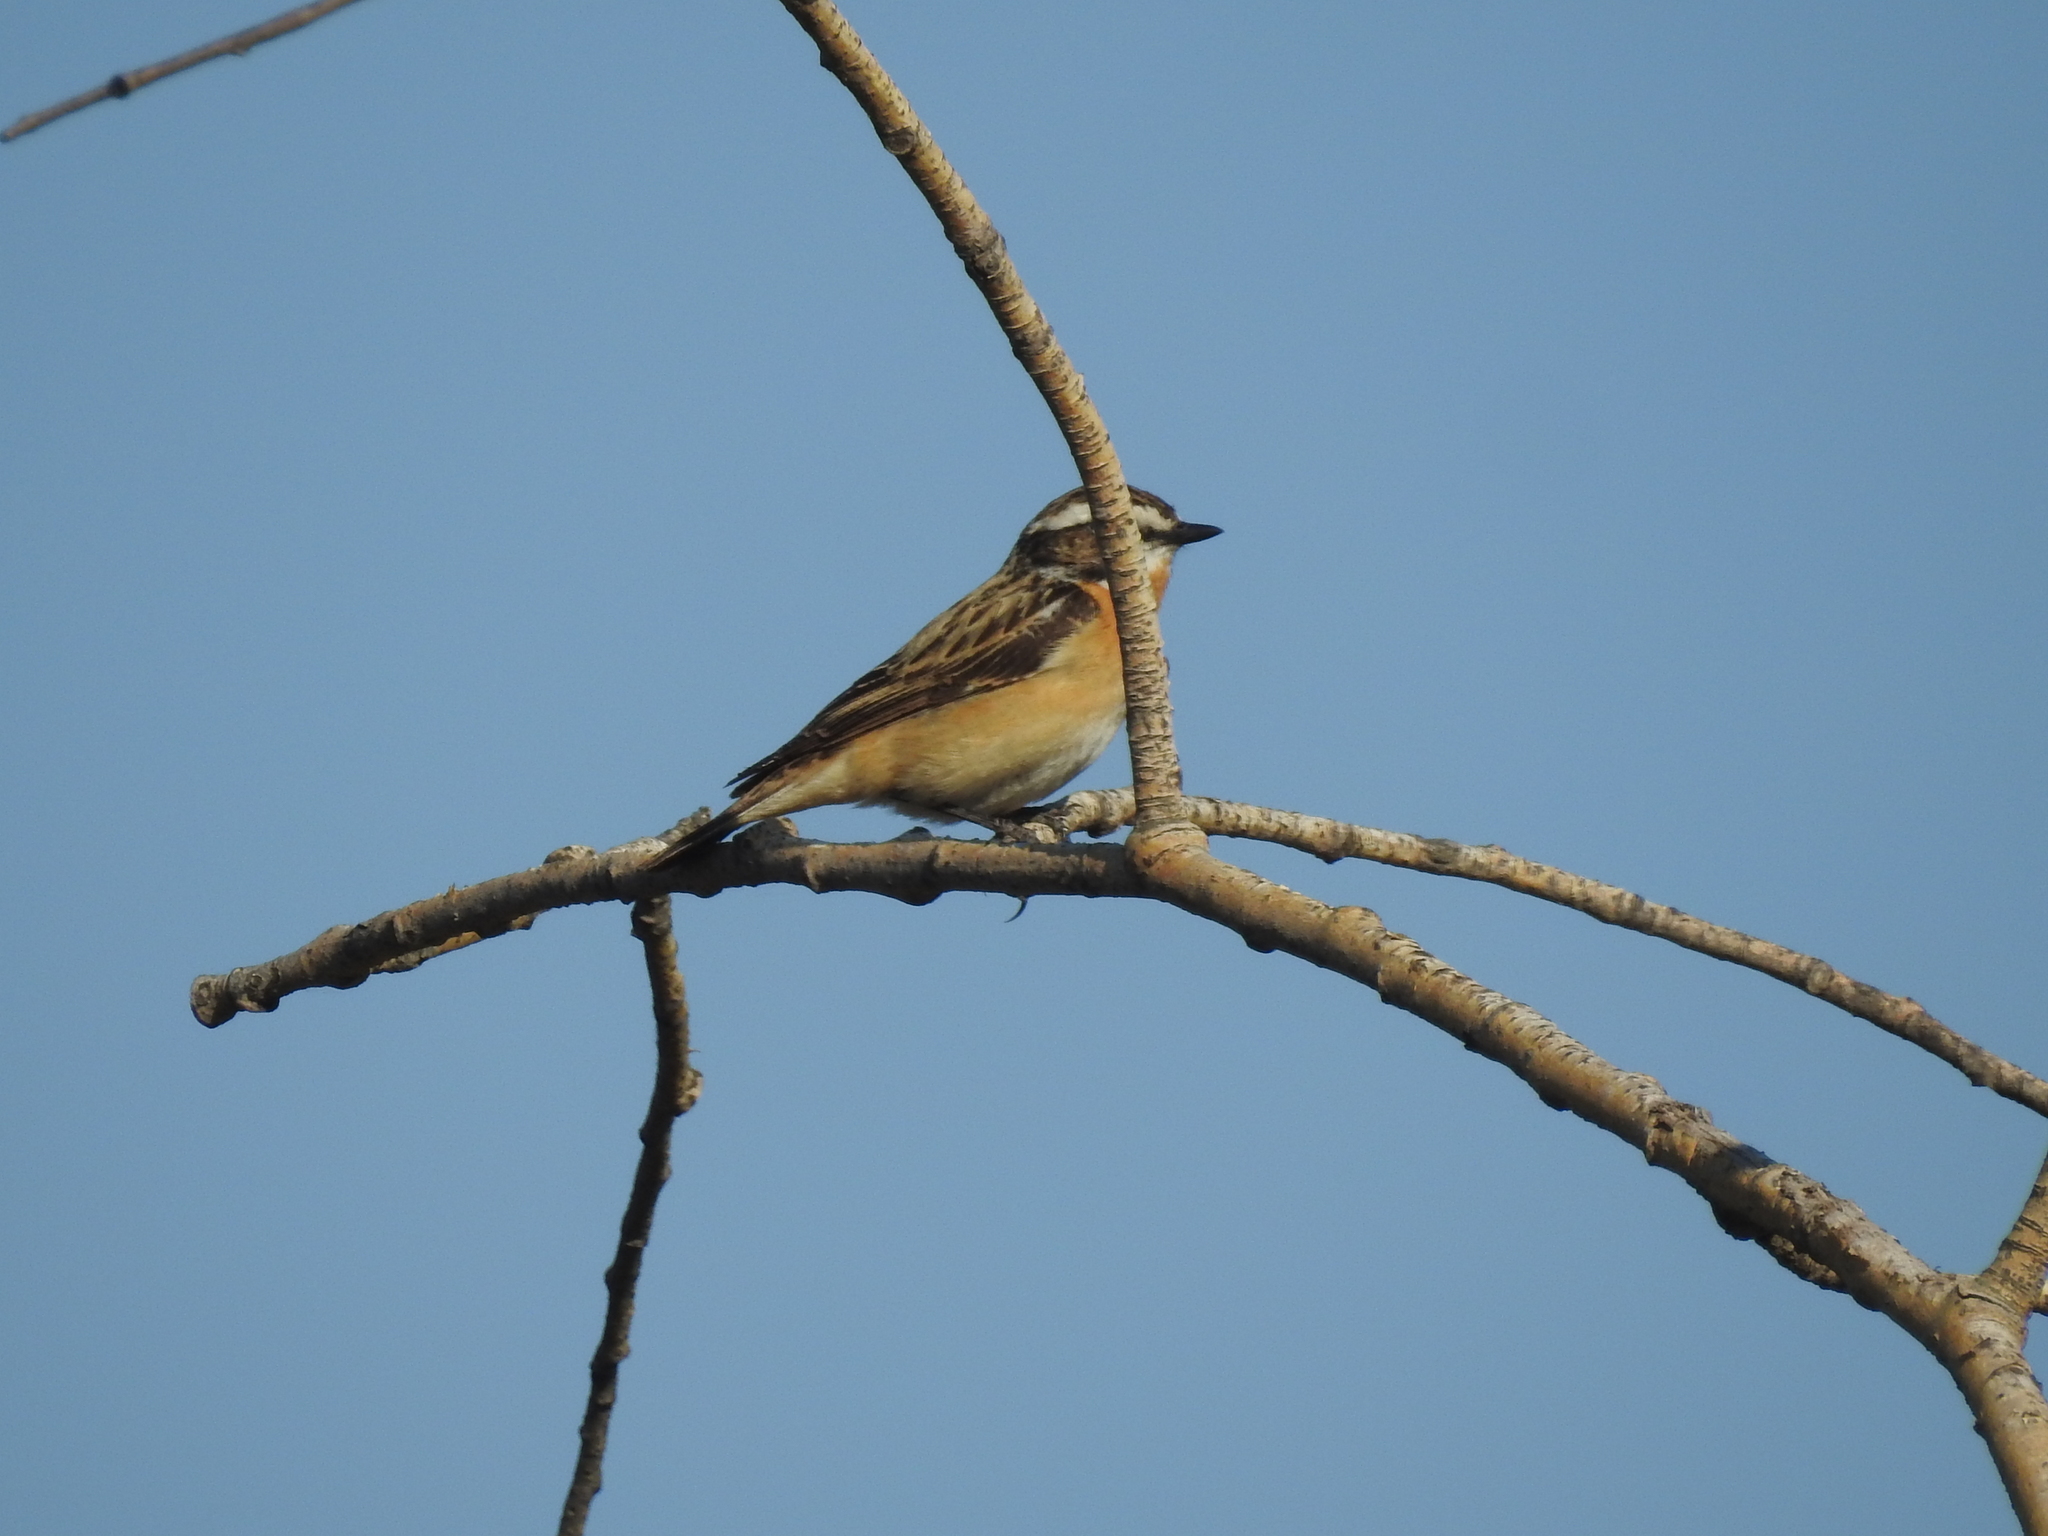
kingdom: Animalia
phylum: Chordata
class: Aves
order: Passeriformes
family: Muscicapidae
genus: Saxicola
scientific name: Saxicola rubetra
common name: Whinchat
